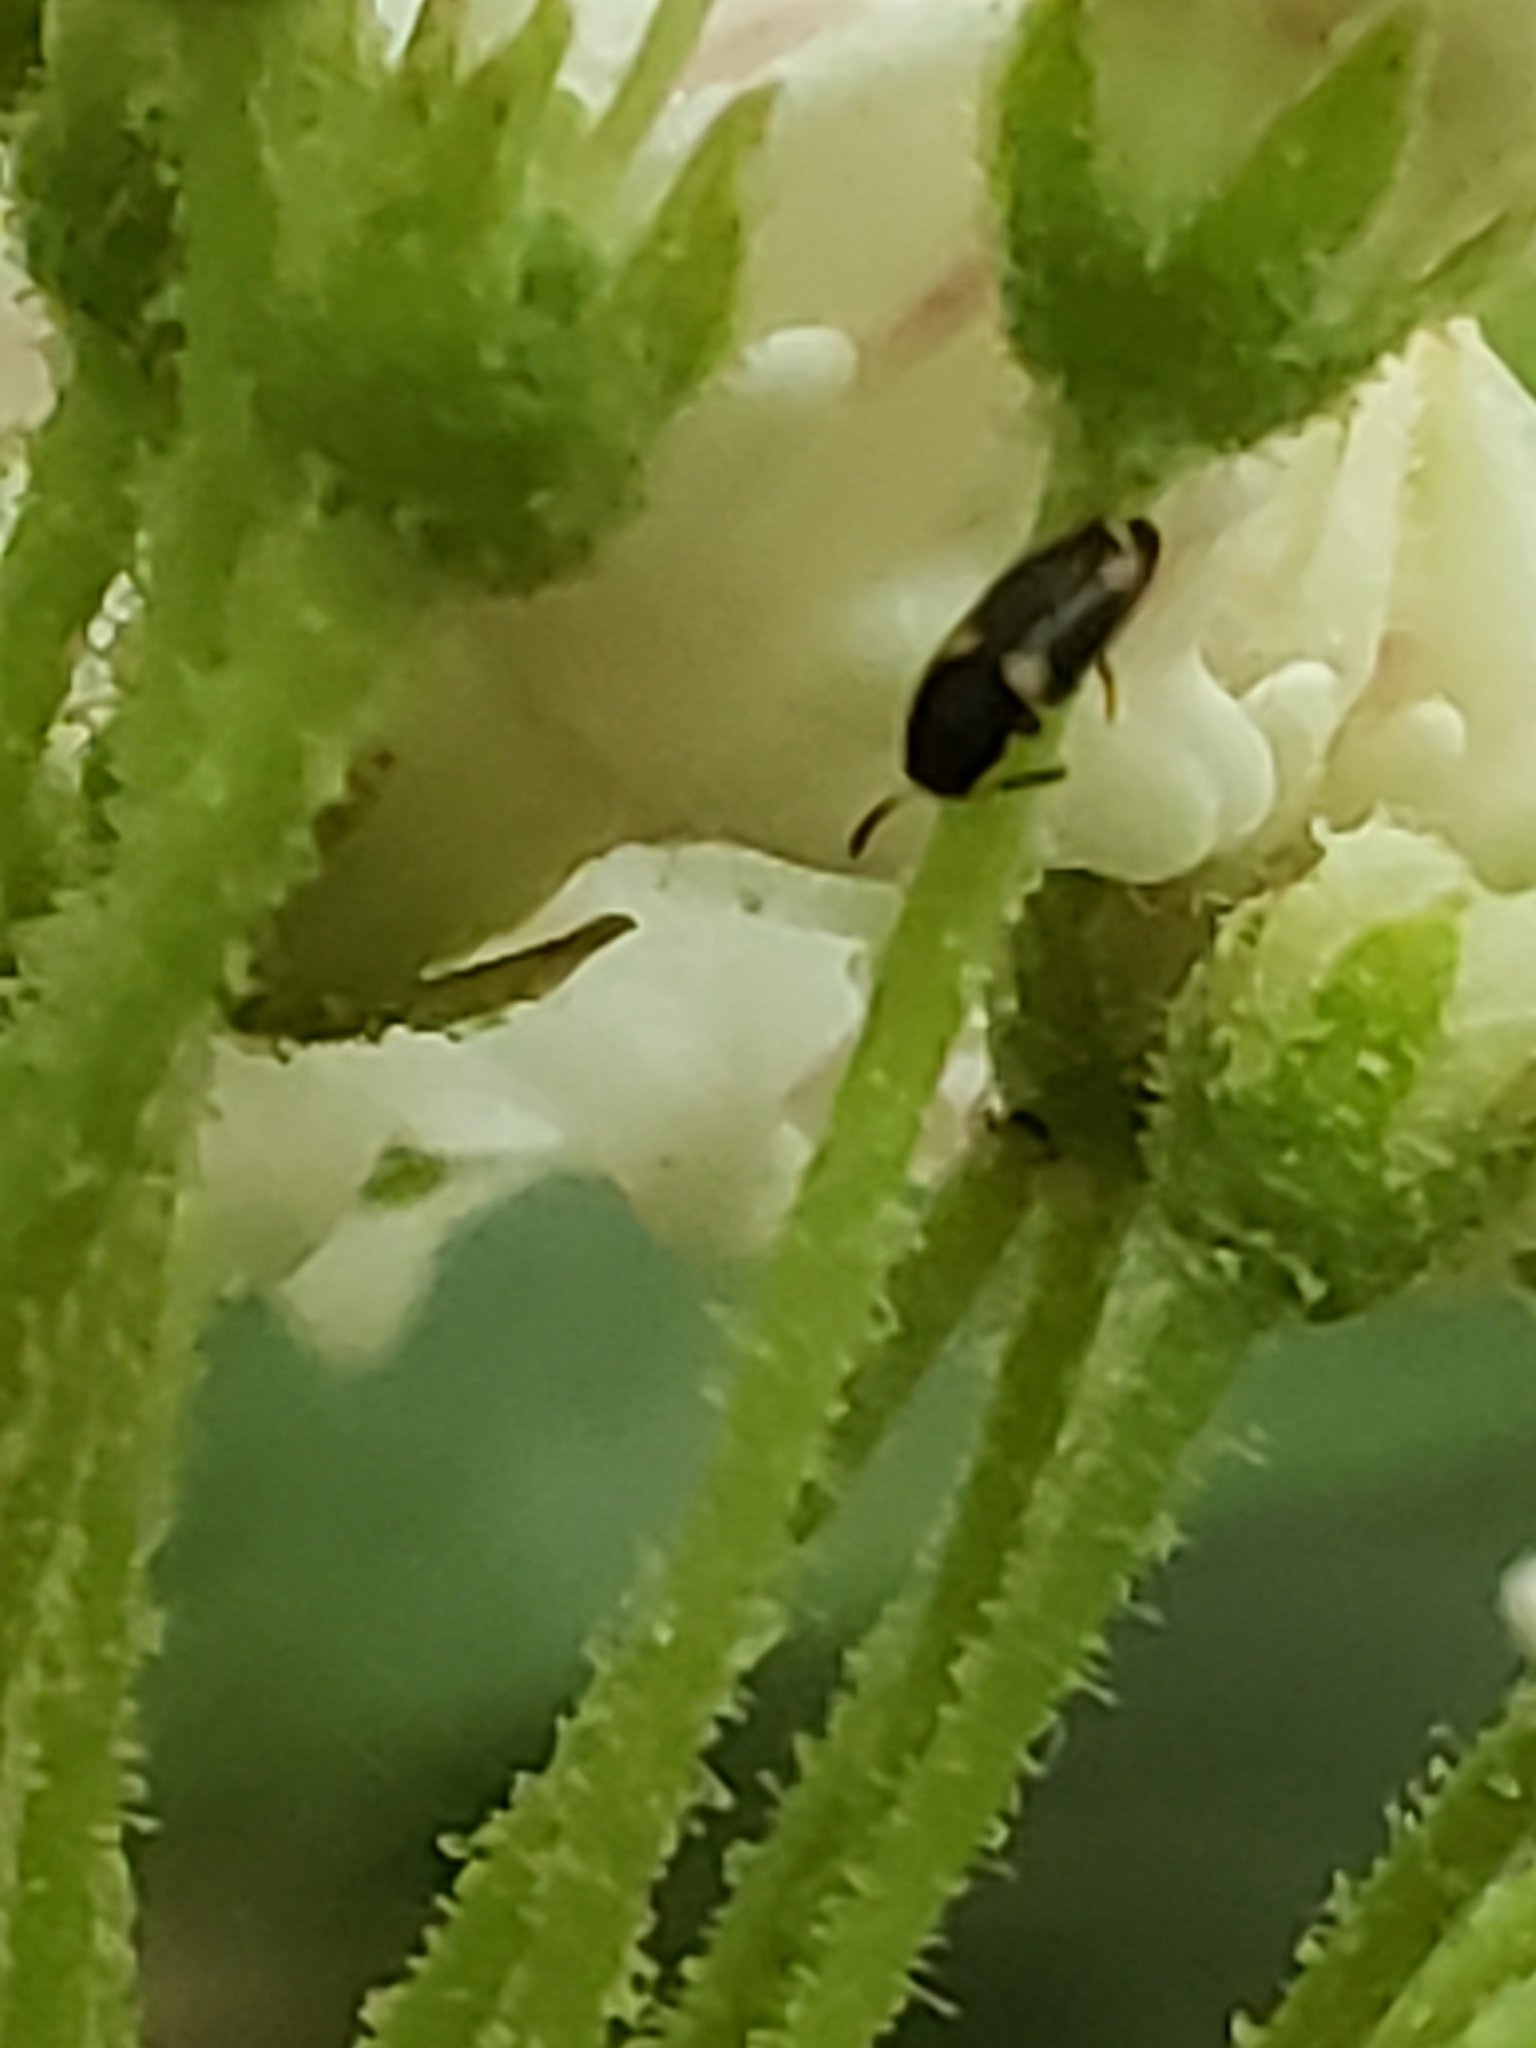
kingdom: Animalia
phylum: Arthropoda
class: Insecta
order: Coleoptera
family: Melandryidae
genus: Spilotus
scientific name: Spilotus quadripustulatus
